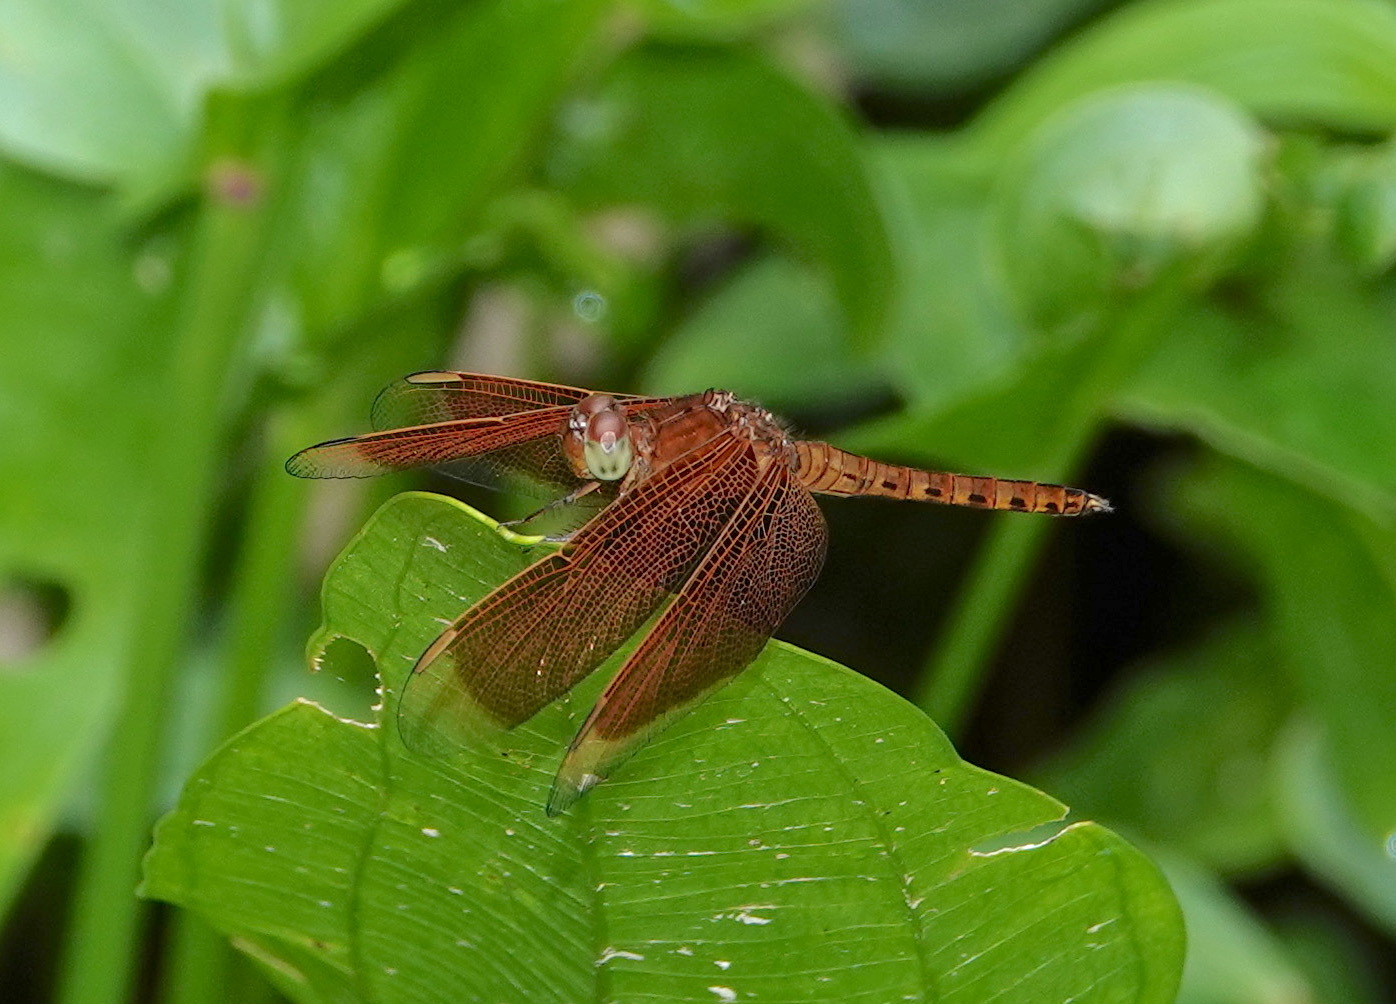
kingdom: Animalia
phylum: Arthropoda
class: Insecta
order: Odonata
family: Libellulidae
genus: Neurothemis
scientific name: Neurothemis fluctuans
